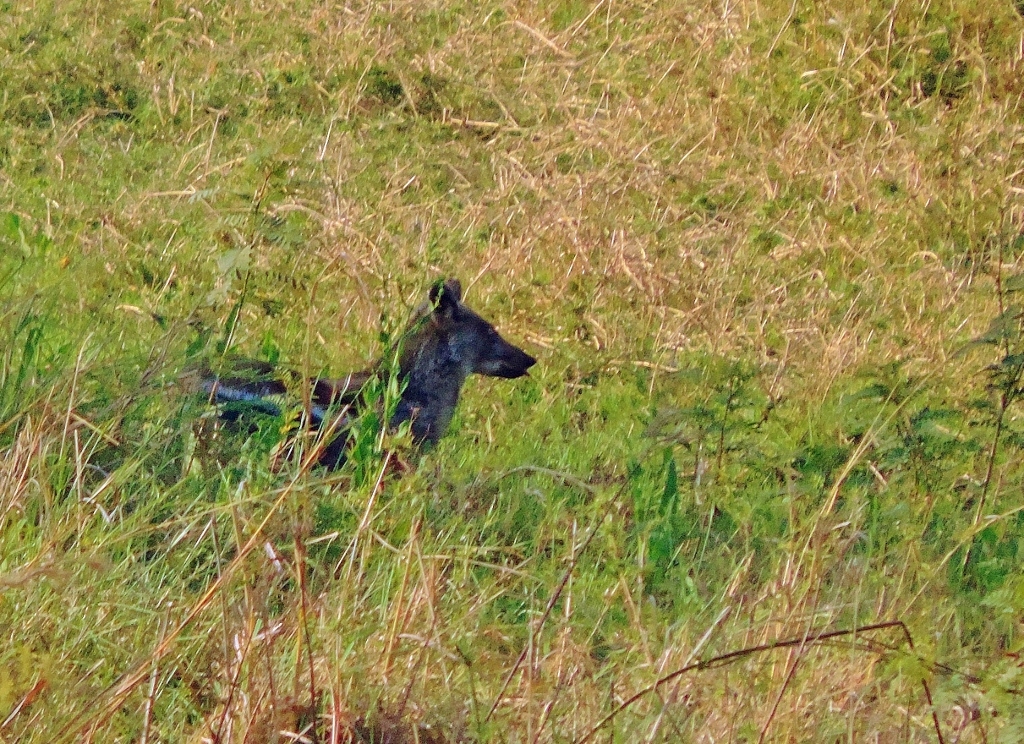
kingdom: Animalia
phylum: Chordata
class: Mammalia
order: Carnivora
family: Canidae
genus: Lupulella
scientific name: Lupulella
